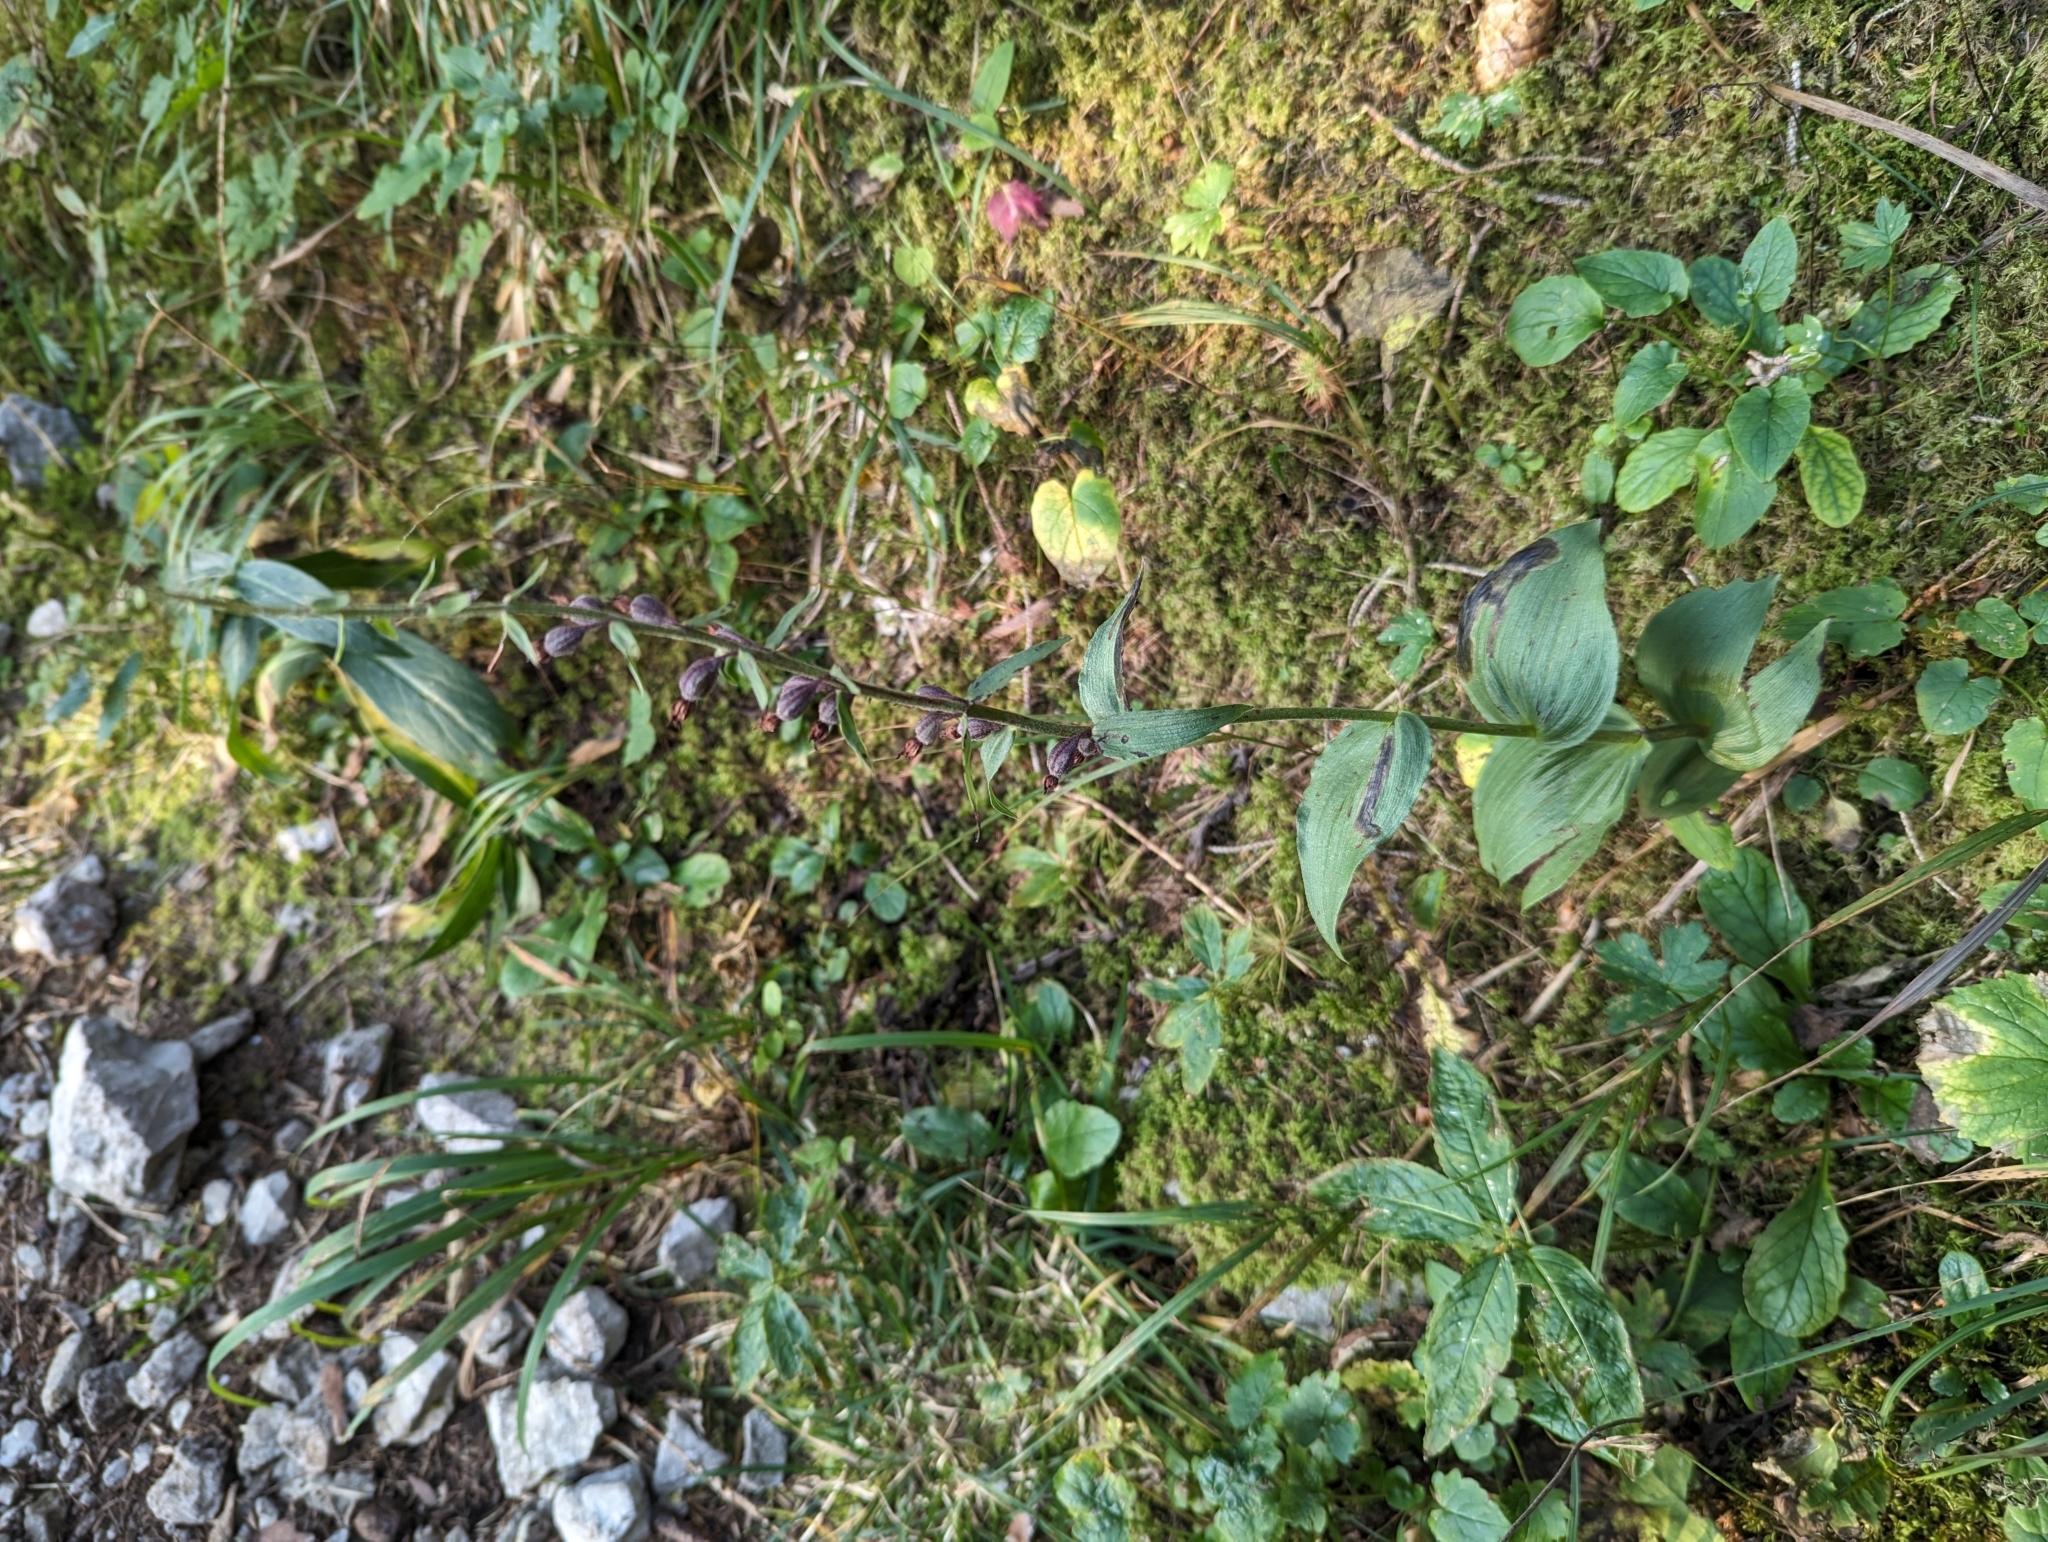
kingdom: Plantae
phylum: Tracheophyta
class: Liliopsida
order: Asparagales
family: Orchidaceae
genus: Epipactis
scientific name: Epipactis atrorubens
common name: Dark-red helleborine
